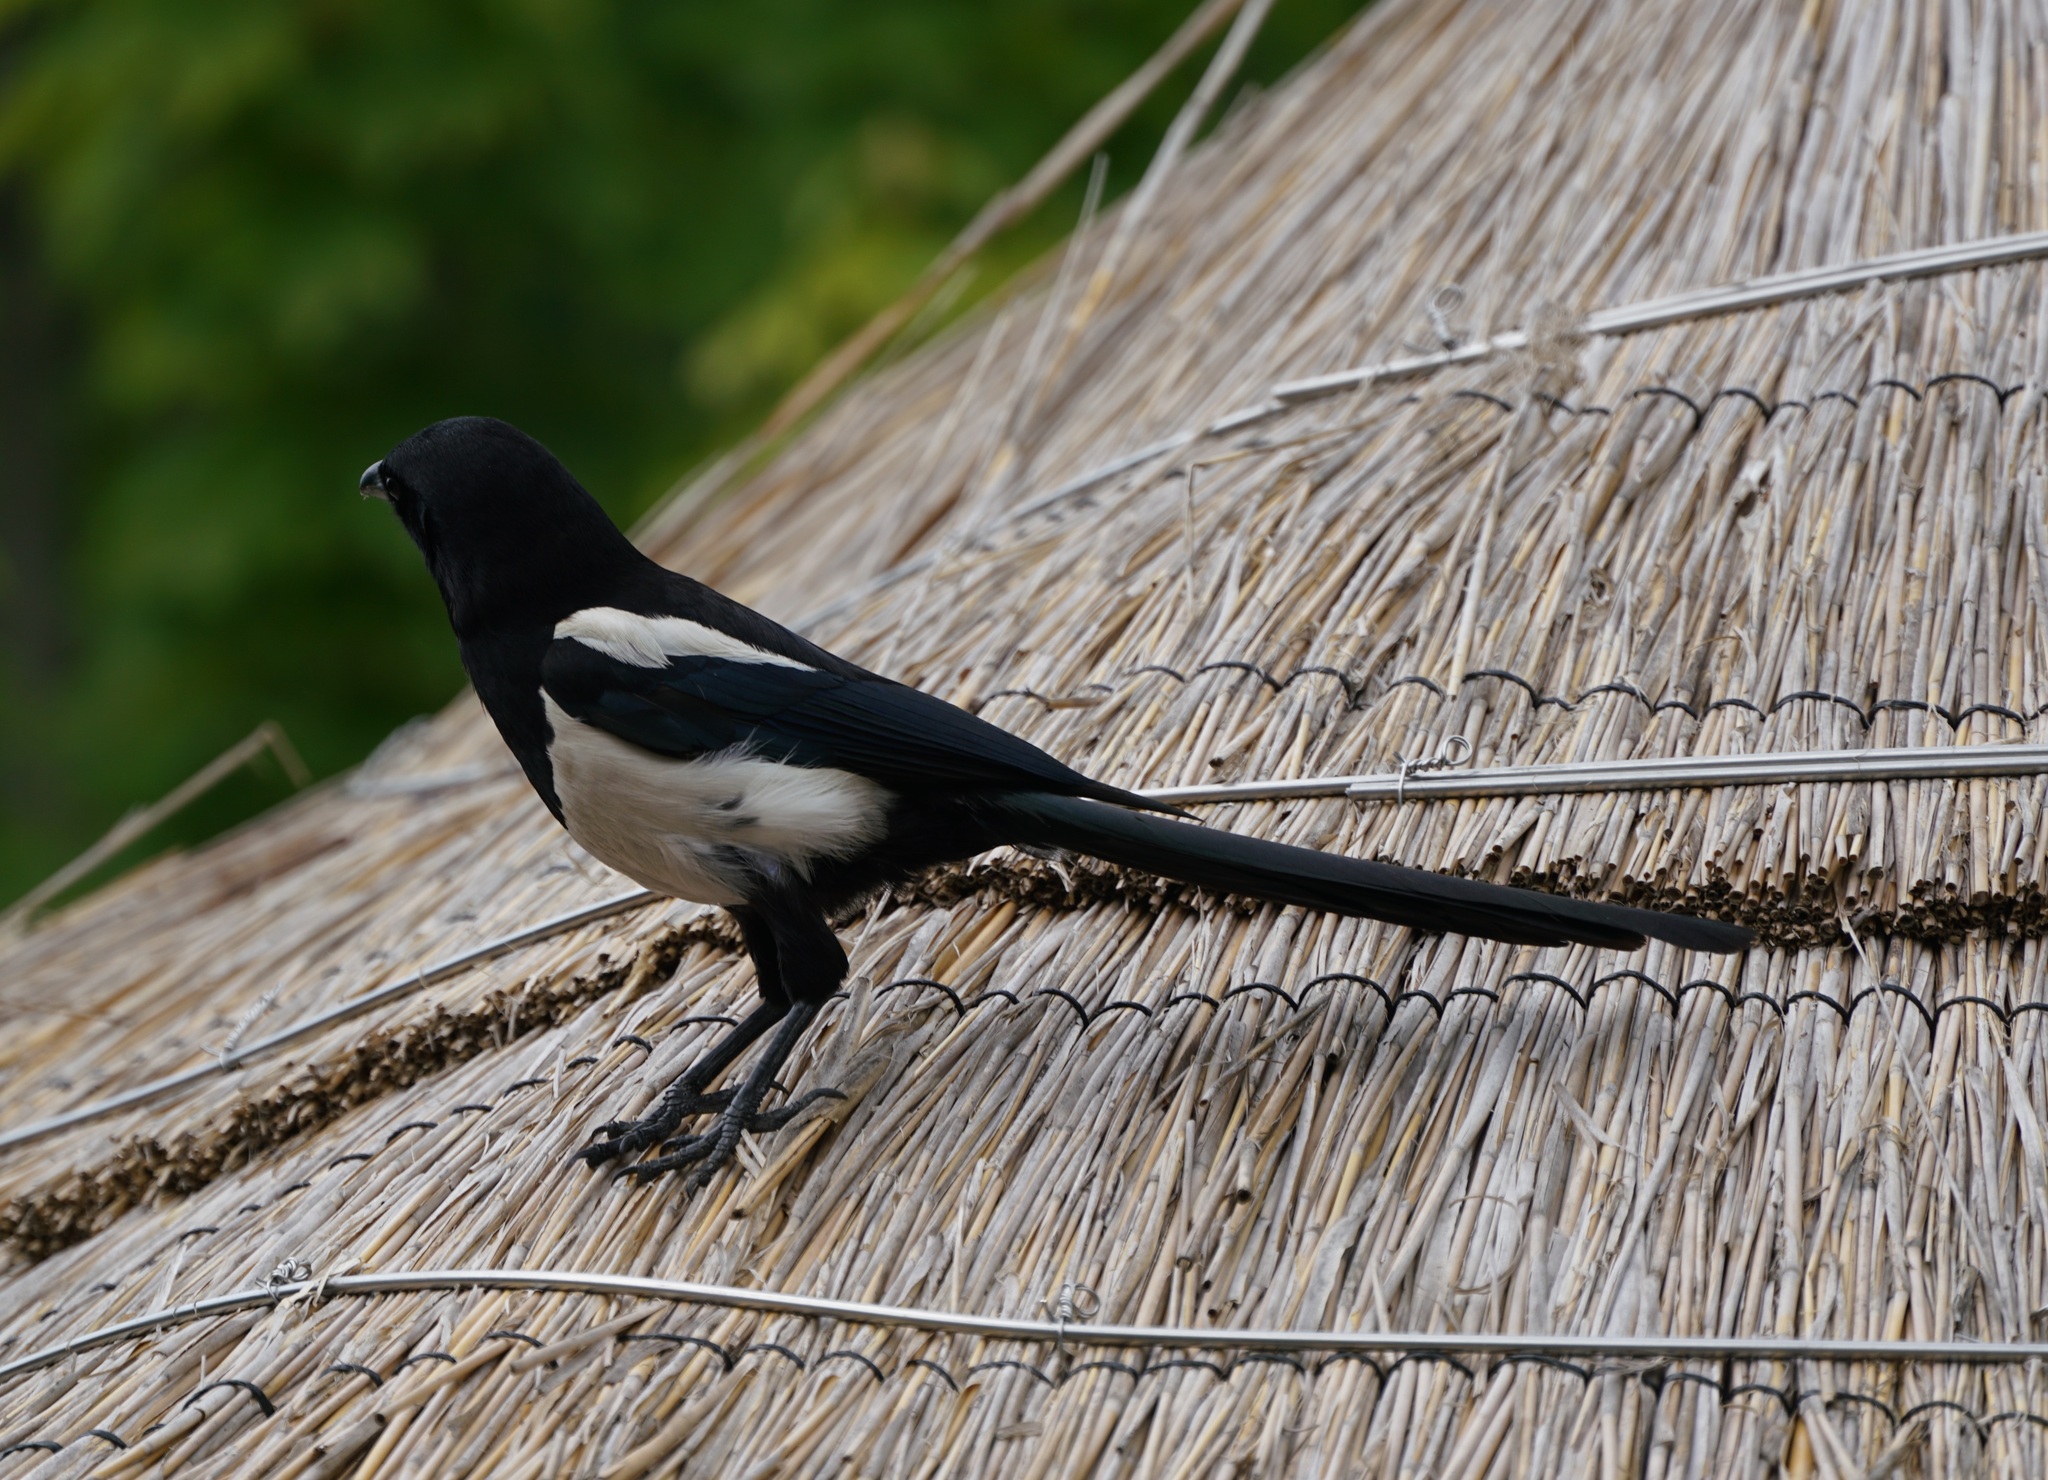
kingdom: Animalia
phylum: Chordata
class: Aves
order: Passeriformes
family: Corvidae
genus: Pica
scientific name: Pica pica
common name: Eurasian magpie
